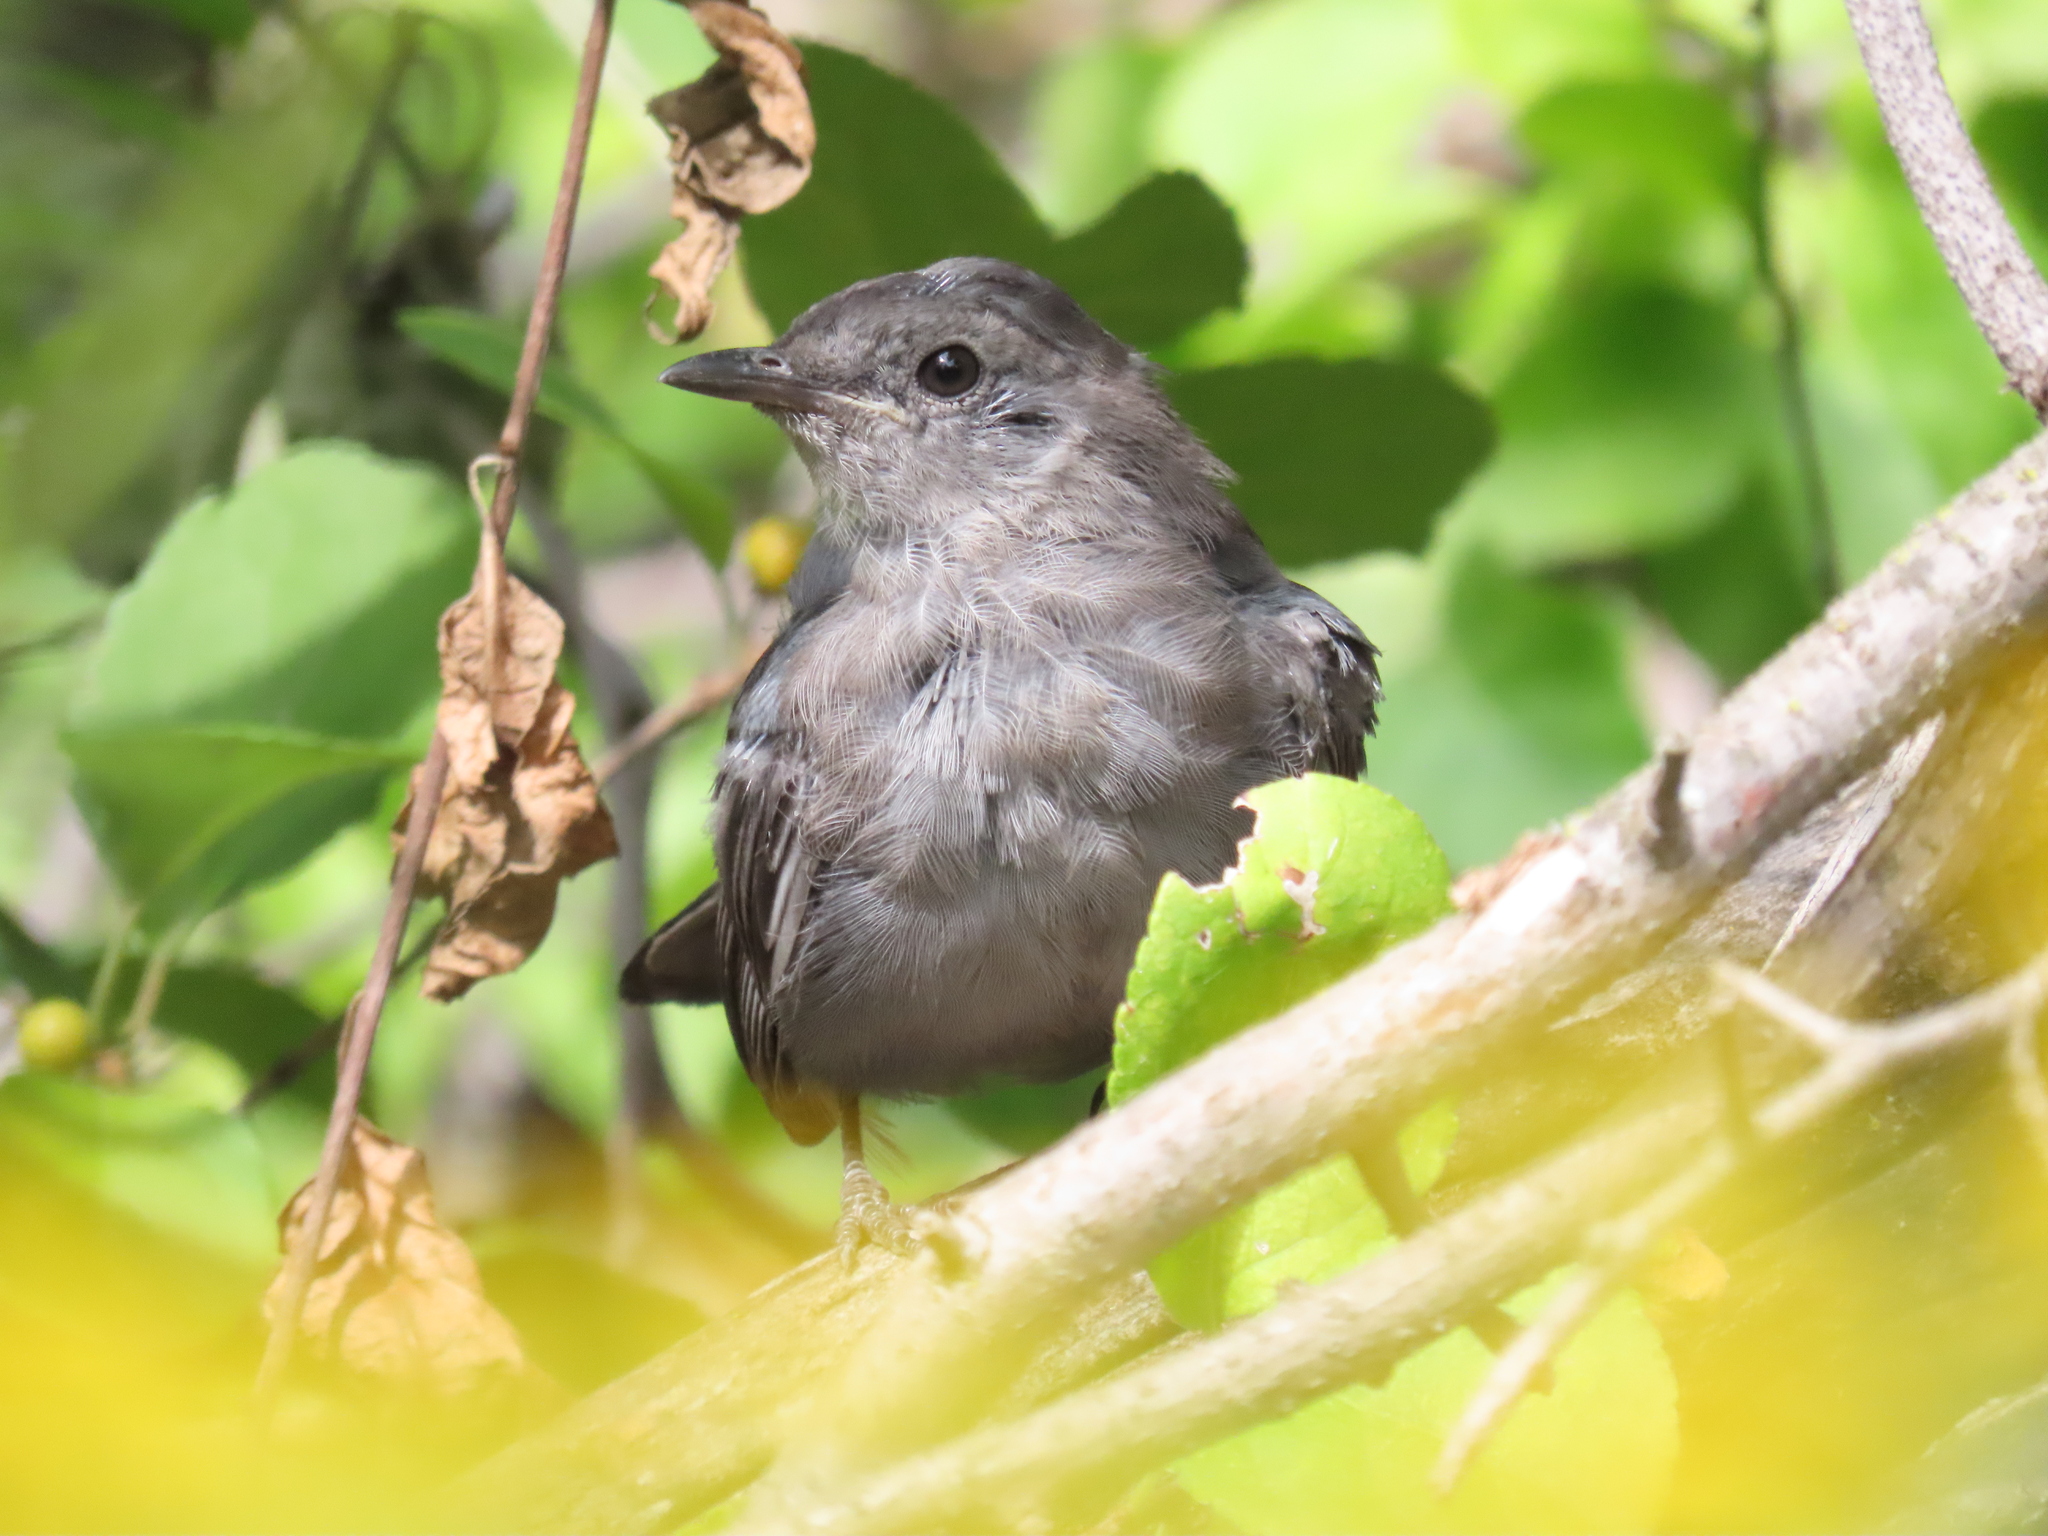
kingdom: Animalia
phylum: Chordata
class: Aves
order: Passeriformes
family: Mimidae
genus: Dumetella
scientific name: Dumetella carolinensis
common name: Gray catbird
